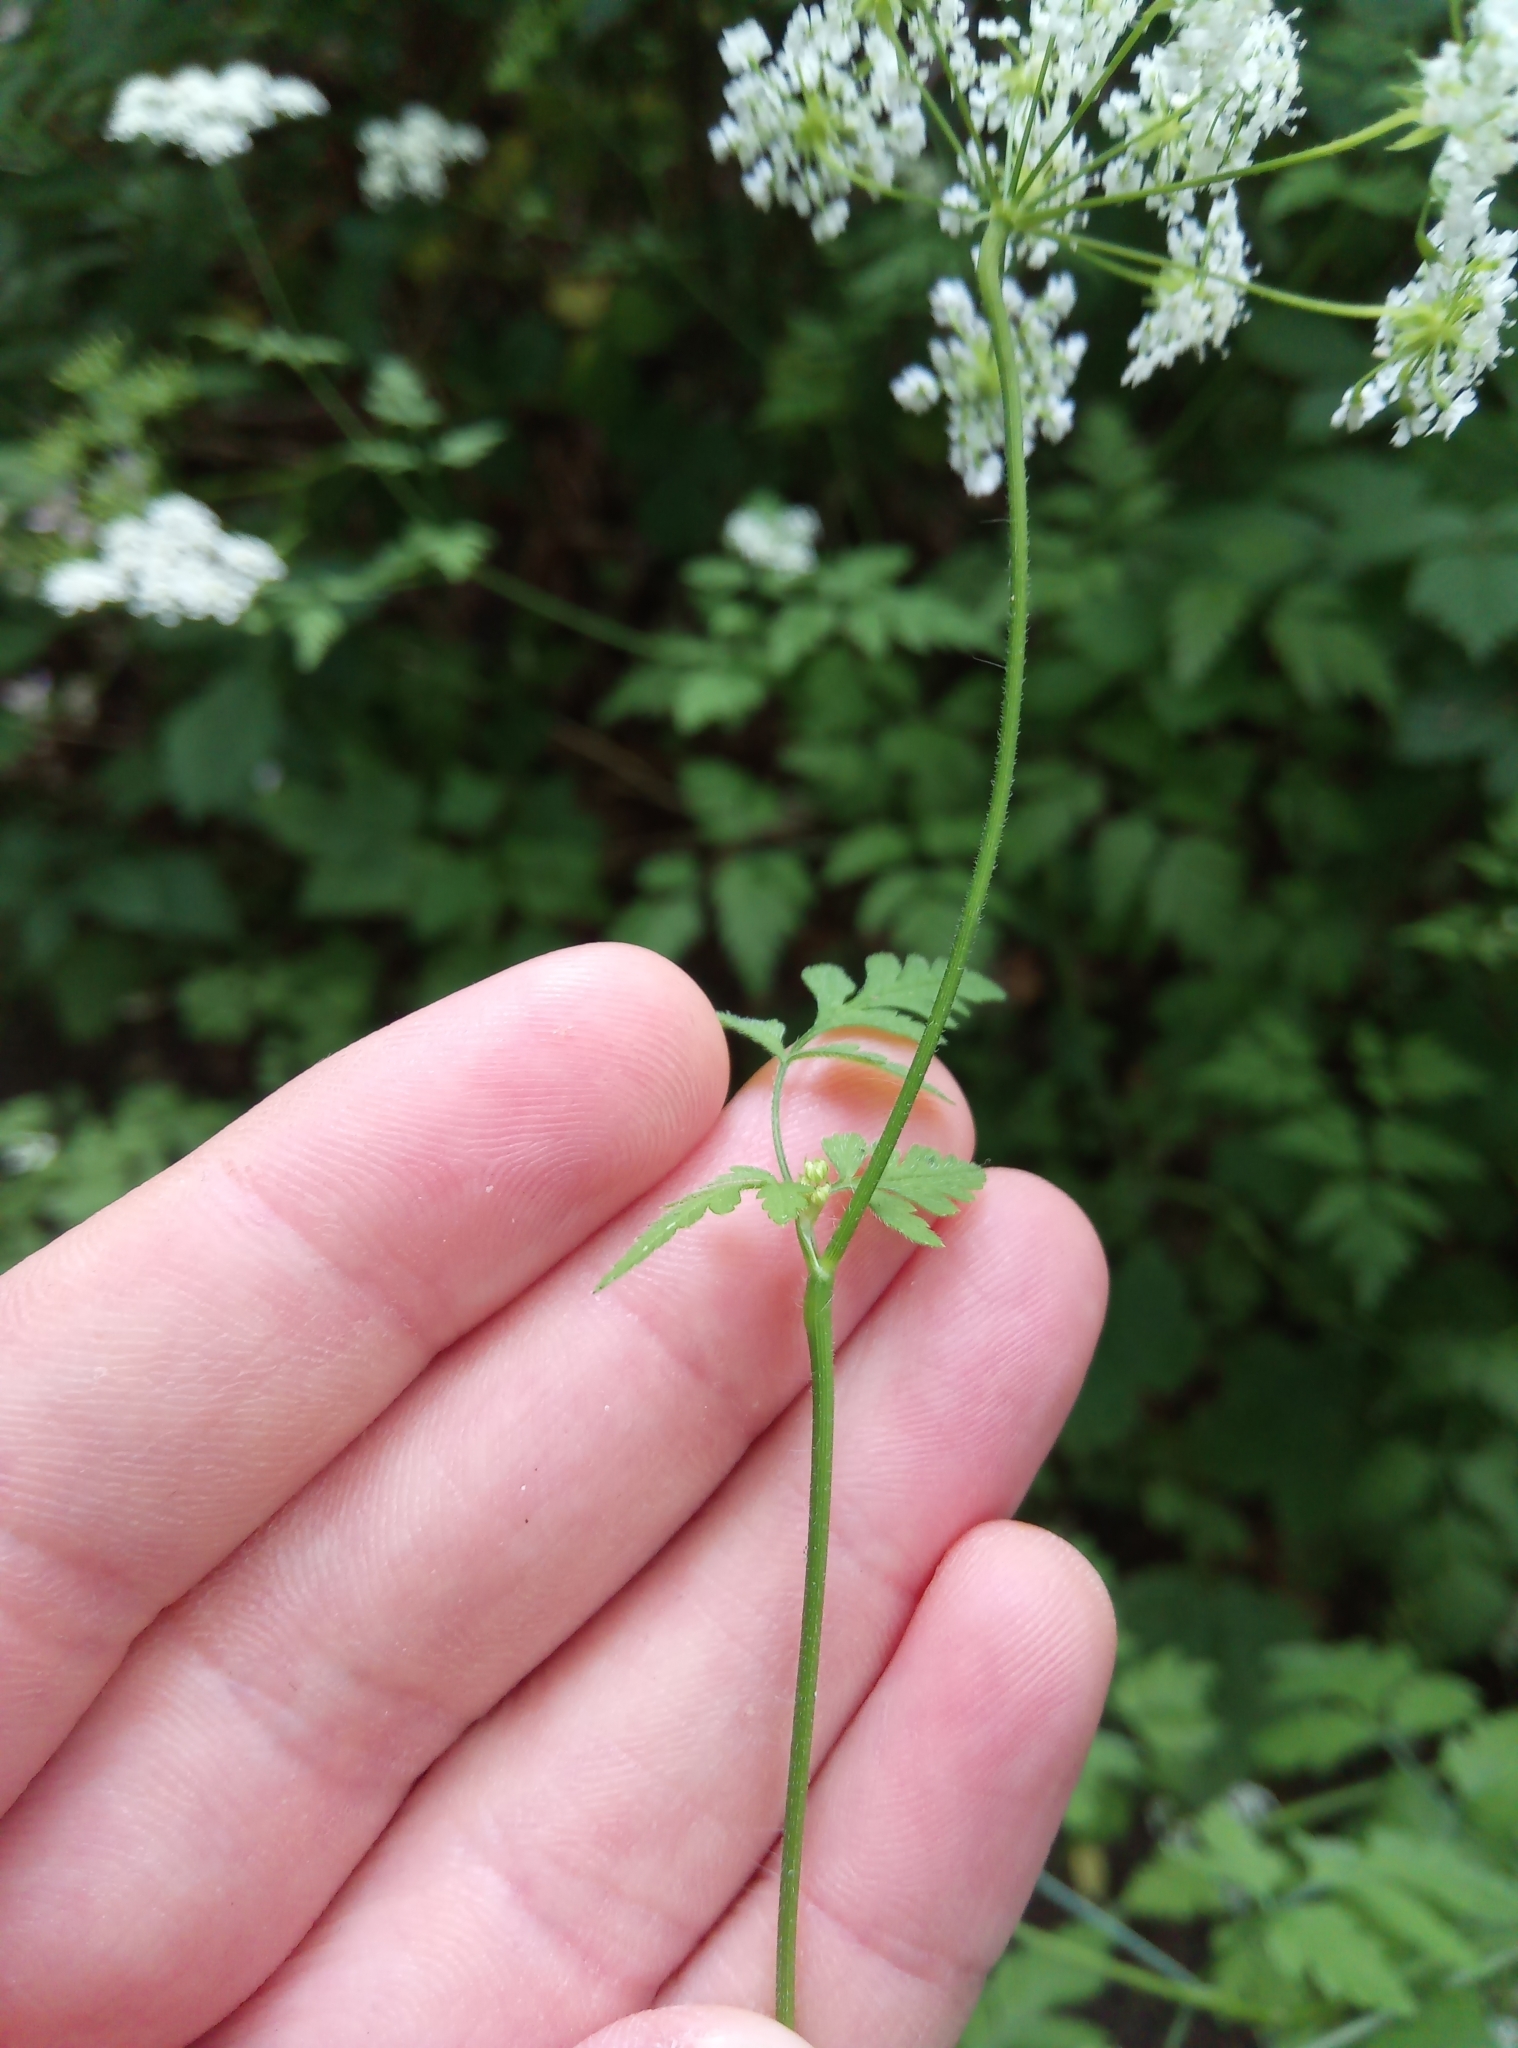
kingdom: Plantae
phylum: Tracheophyta
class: Magnoliopsida
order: Apiales
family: Apiaceae
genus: Chaerophyllum
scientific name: Chaerophyllum temulum
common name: Rough chervil
